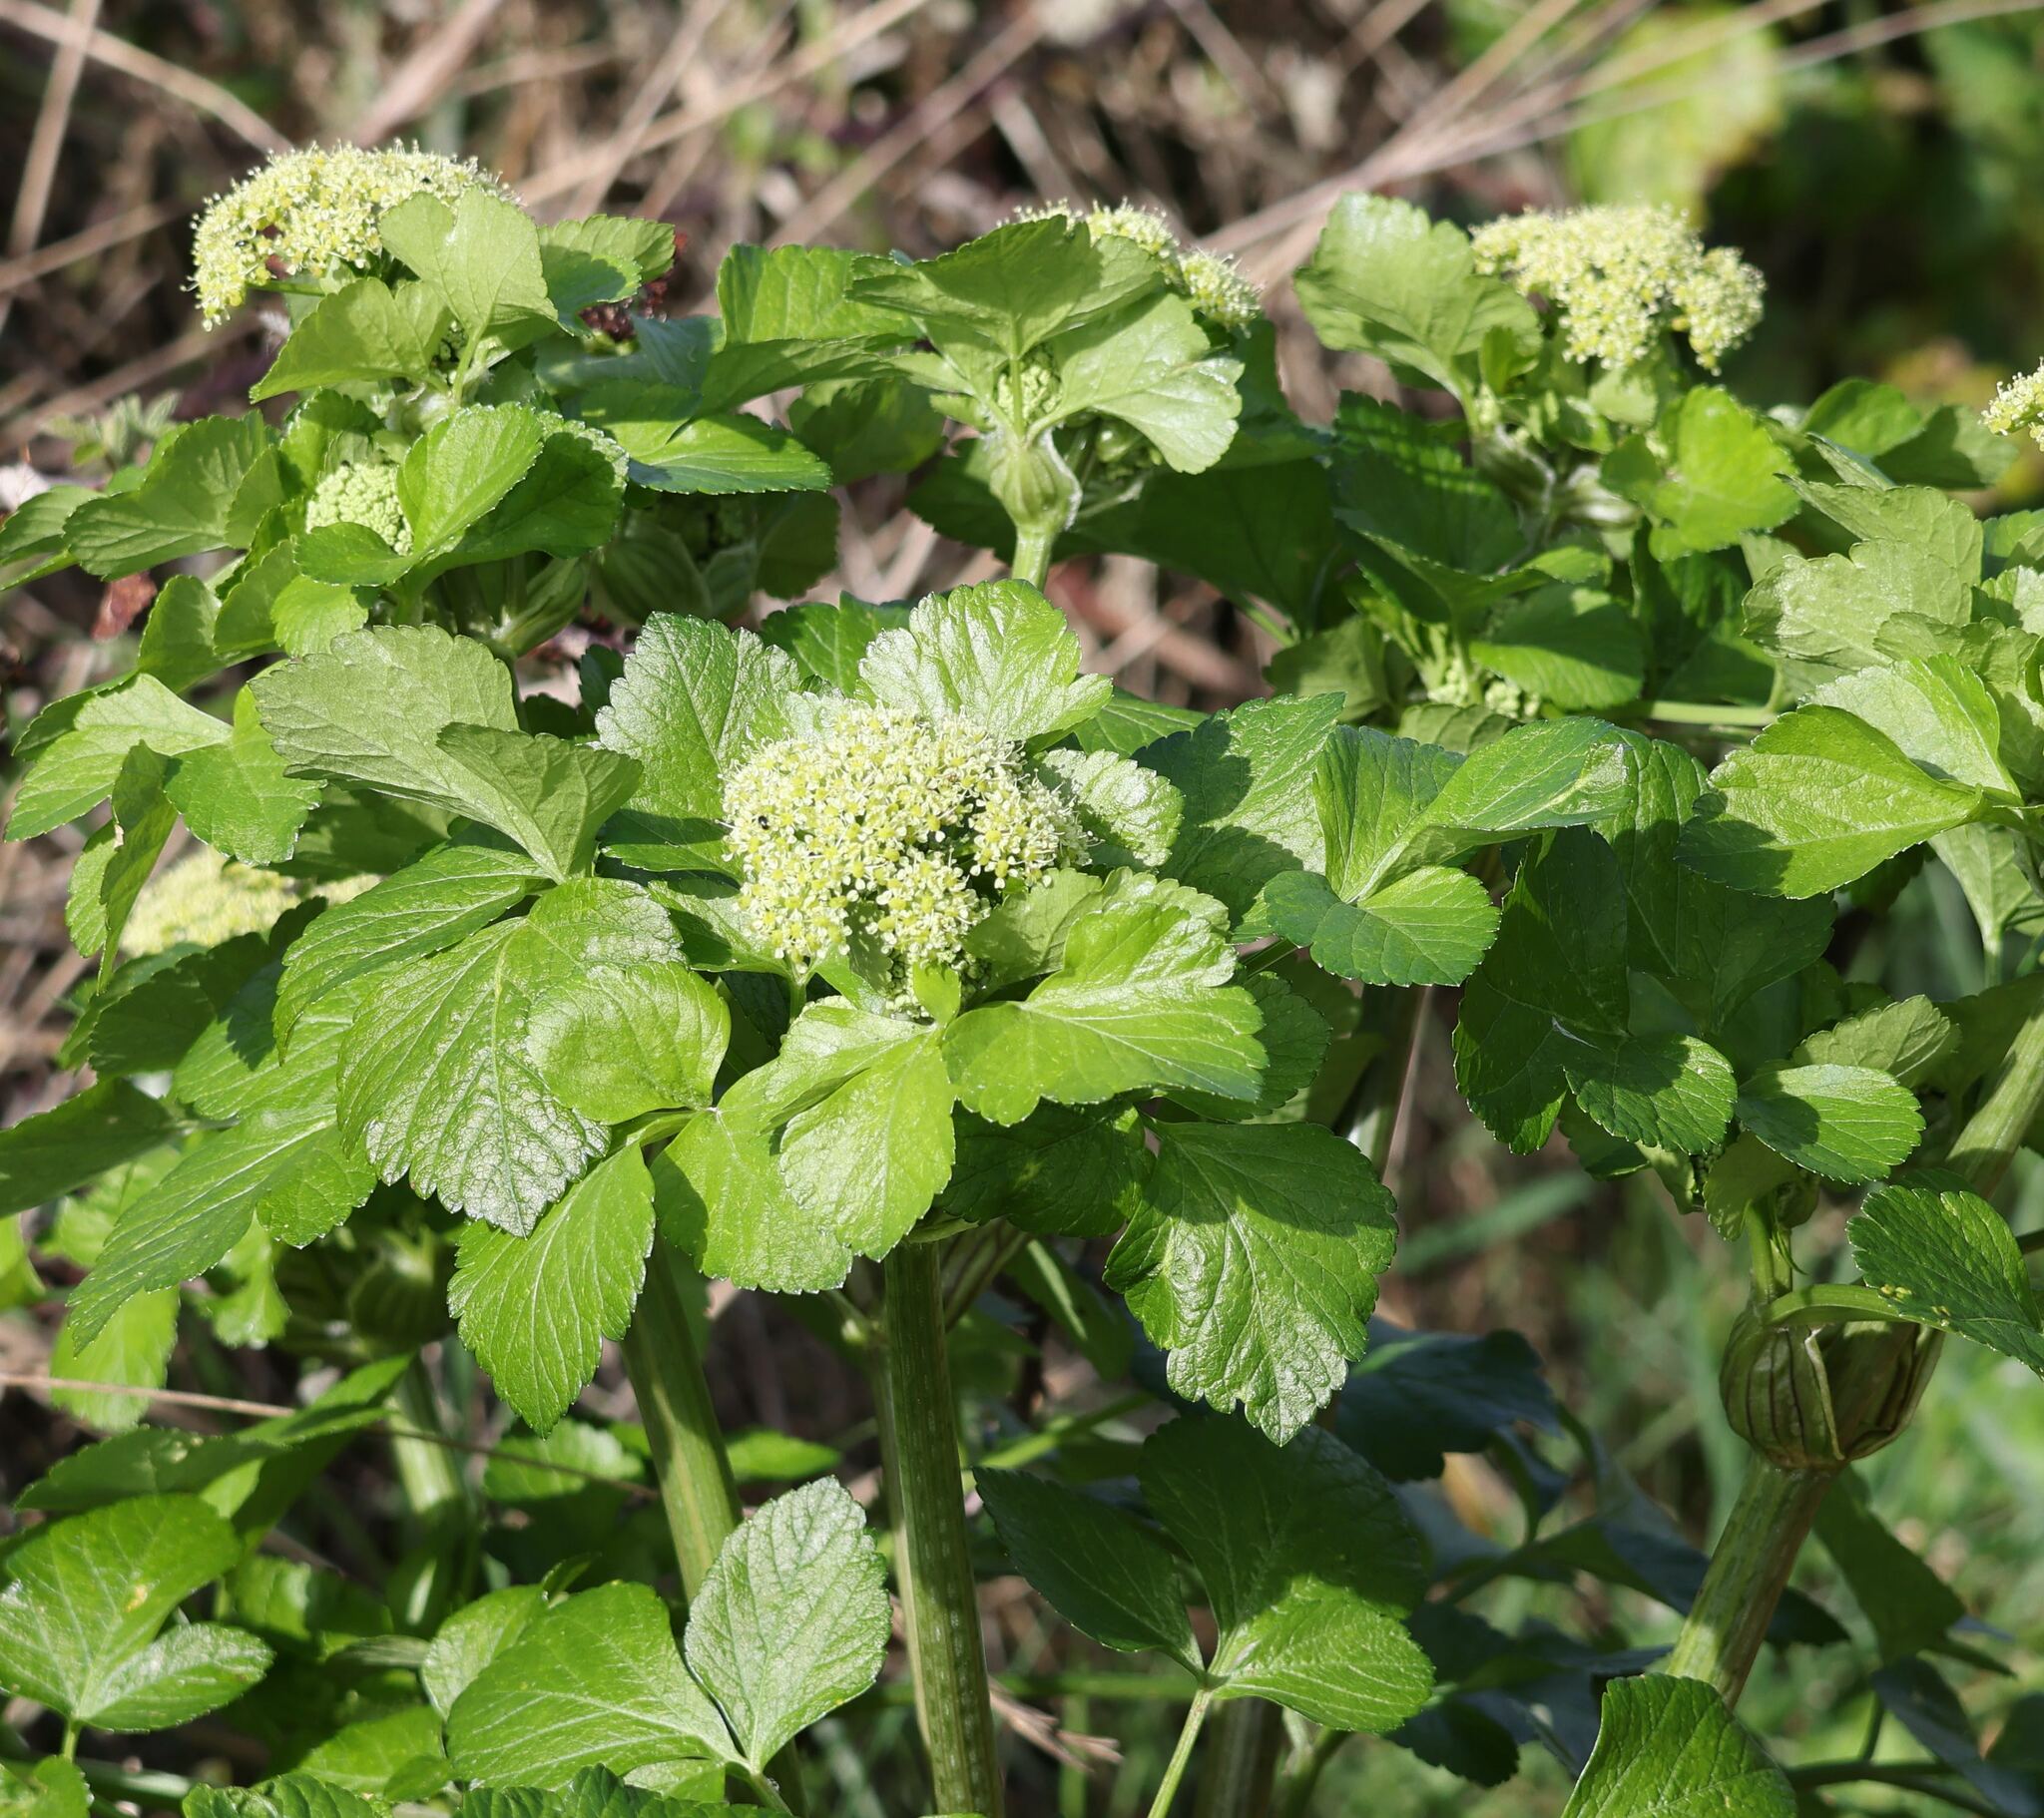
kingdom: Plantae
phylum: Tracheophyta
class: Magnoliopsida
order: Apiales
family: Apiaceae
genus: Smyrnium
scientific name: Smyrnium olusatrum
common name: Alexanders
